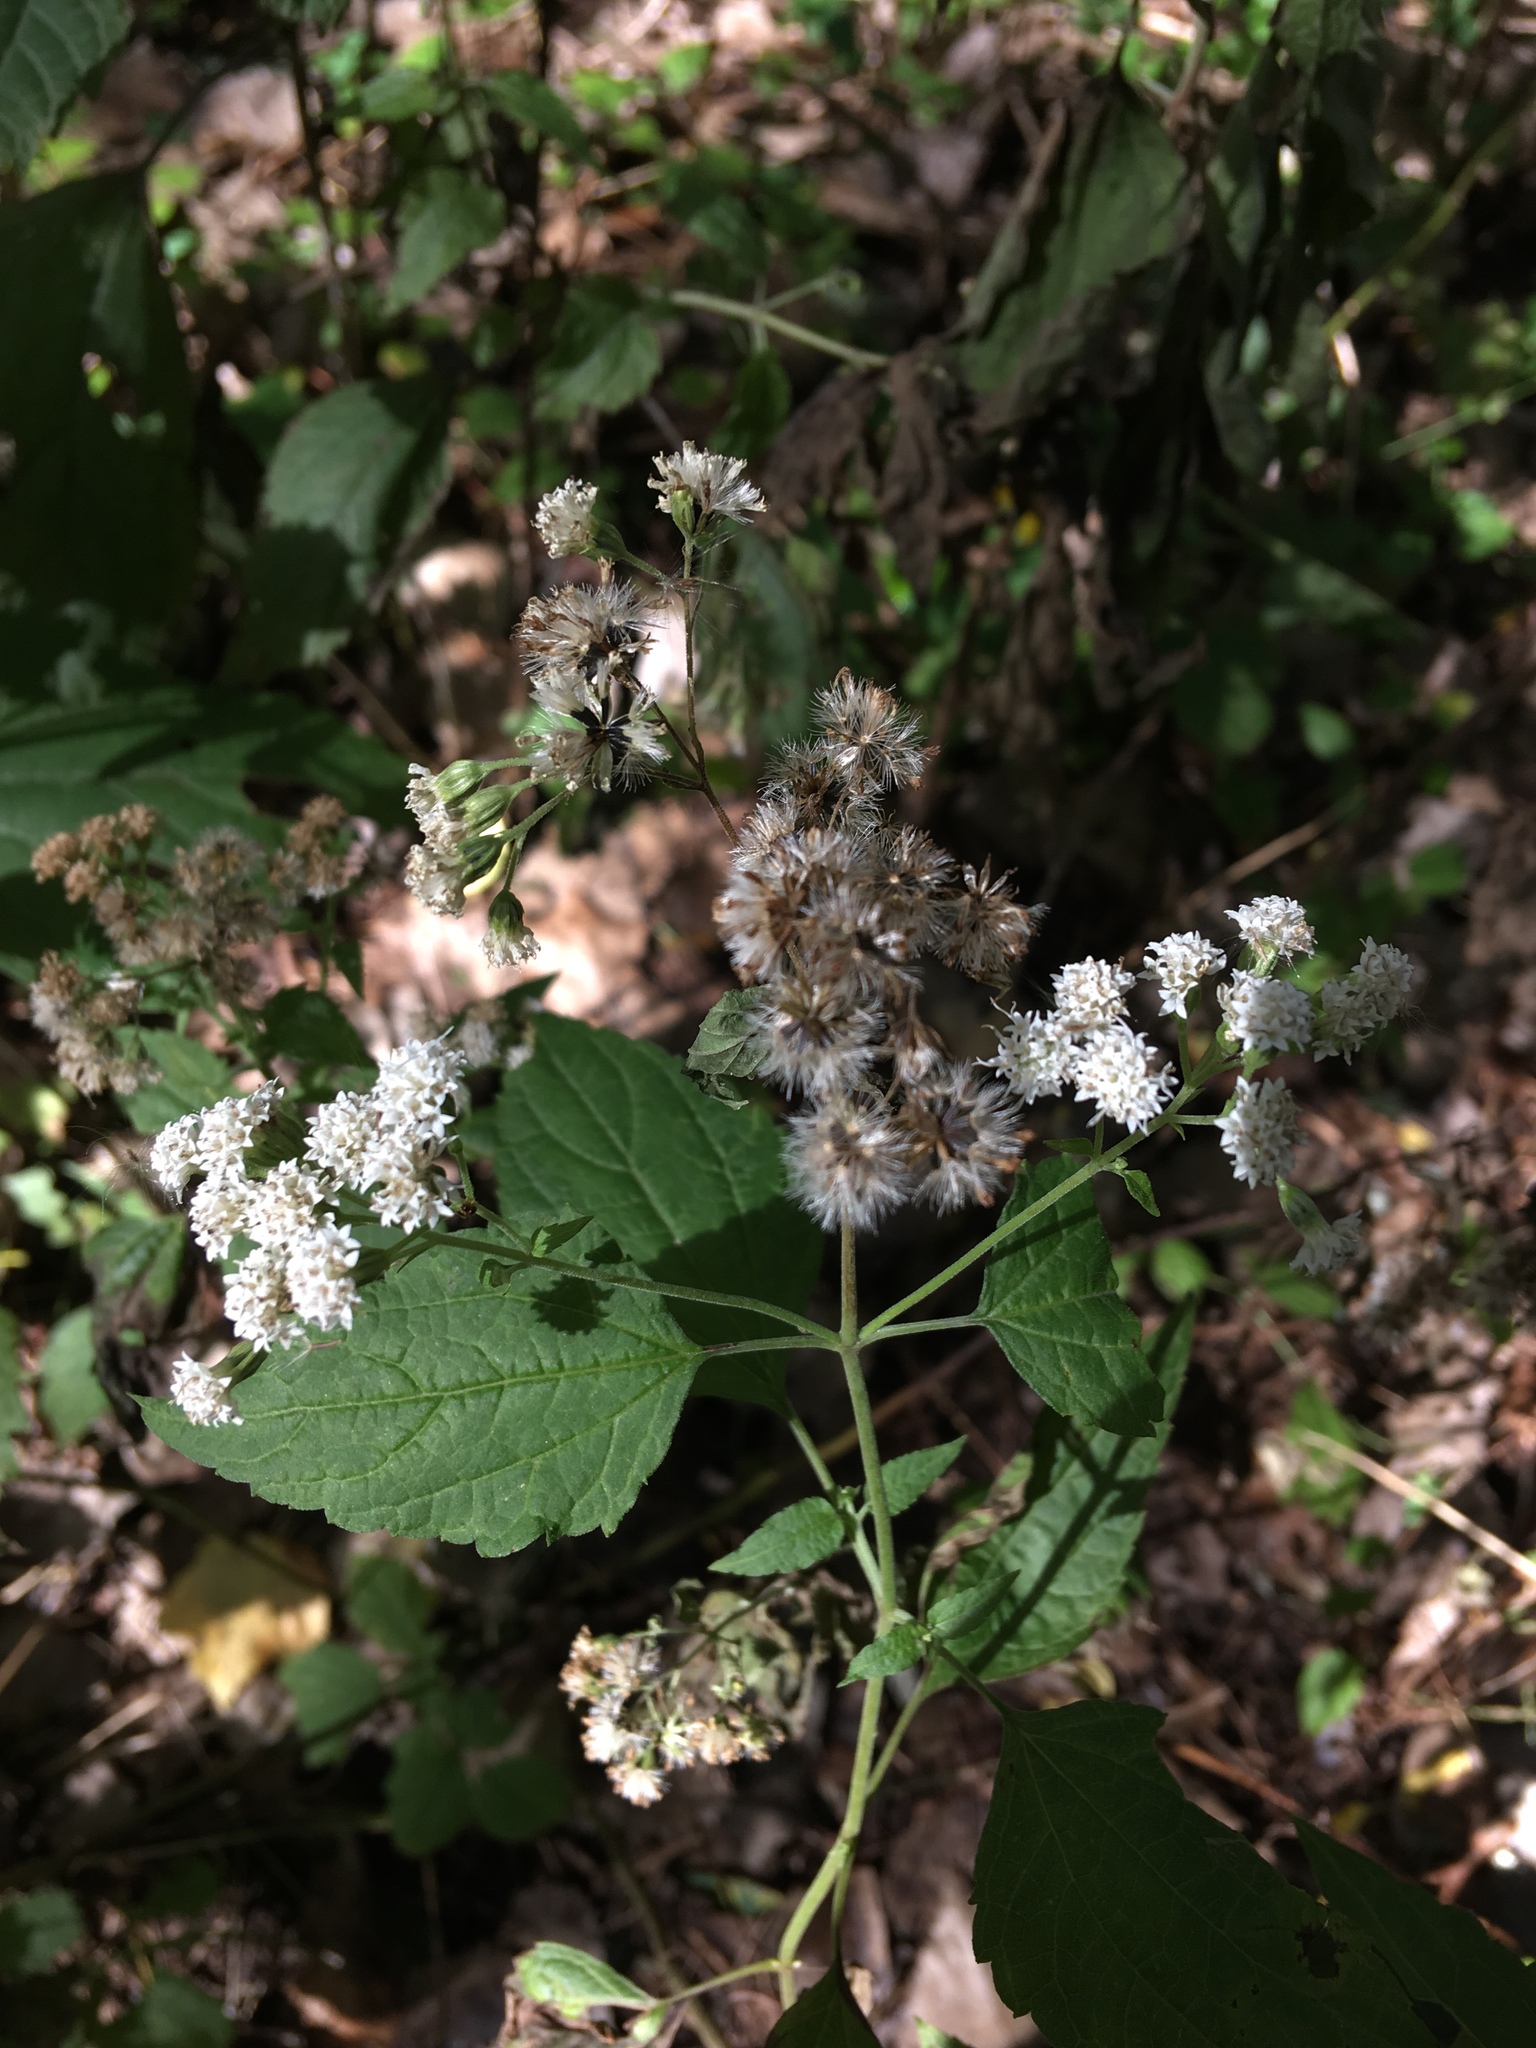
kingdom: Plantae
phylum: Tracheophyta
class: Magnoliopsida
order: Asterales
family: Asteraceae
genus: Ageratina
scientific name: Ageratina altissima
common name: White snakeroot
